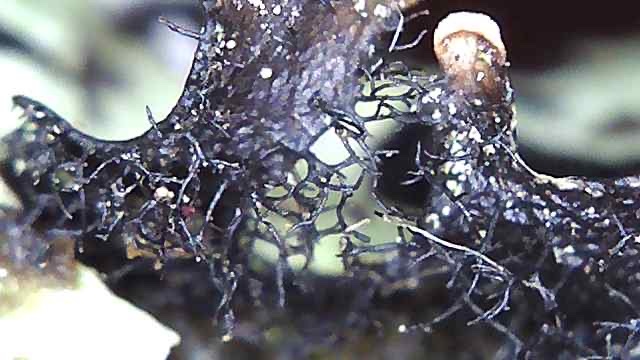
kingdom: Fungi
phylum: Ascomycota
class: Lecanoromycetes
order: Lecanorales
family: Parmeliaceae
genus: Hypotrachyna
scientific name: Hypotrachyna sinuosa
